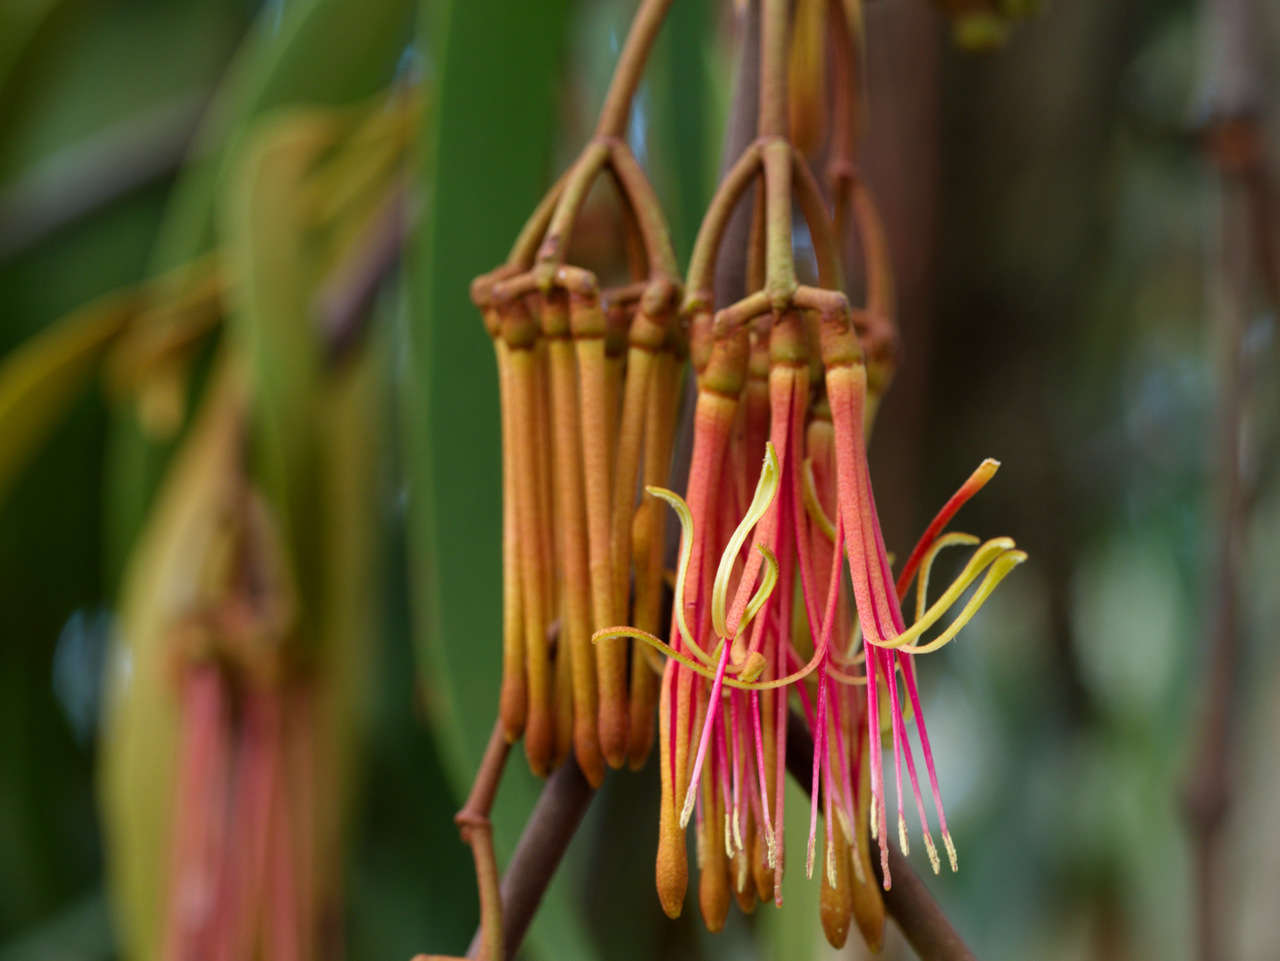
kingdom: Plantae
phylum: Tracheophyta
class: Magnoliopsida
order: Santalales
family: Loranthaceae
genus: Amyema
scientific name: Amyema pendula
